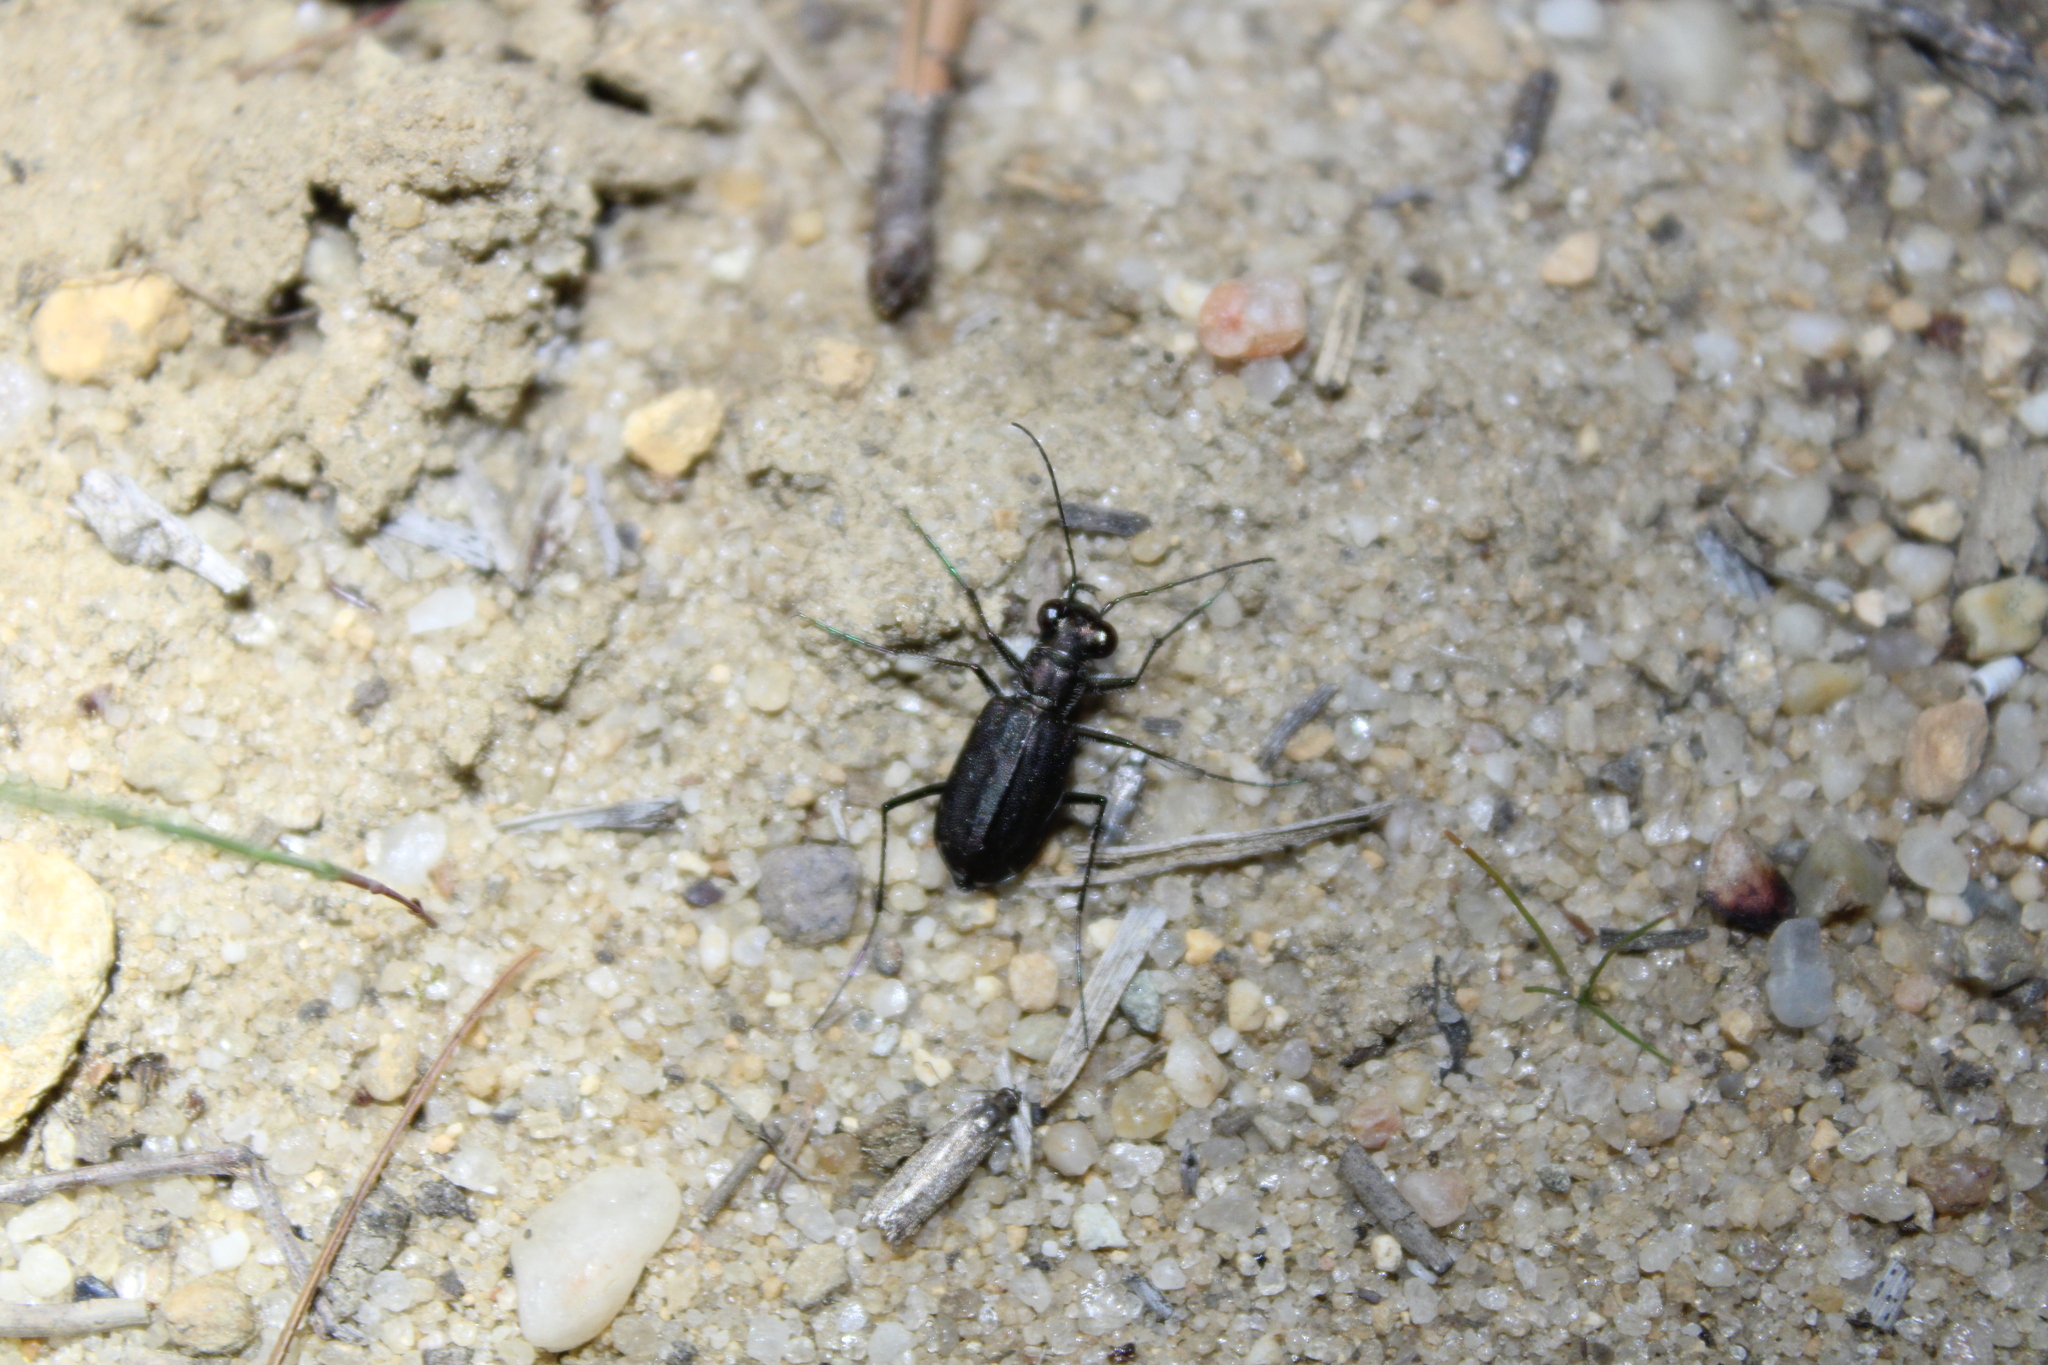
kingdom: Animalia
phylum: Arthropoda
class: Insecta
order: Coleoptera
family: Carabidae
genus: Cicindela
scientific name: Cicindela punctulata
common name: Punctured tiger beetle
